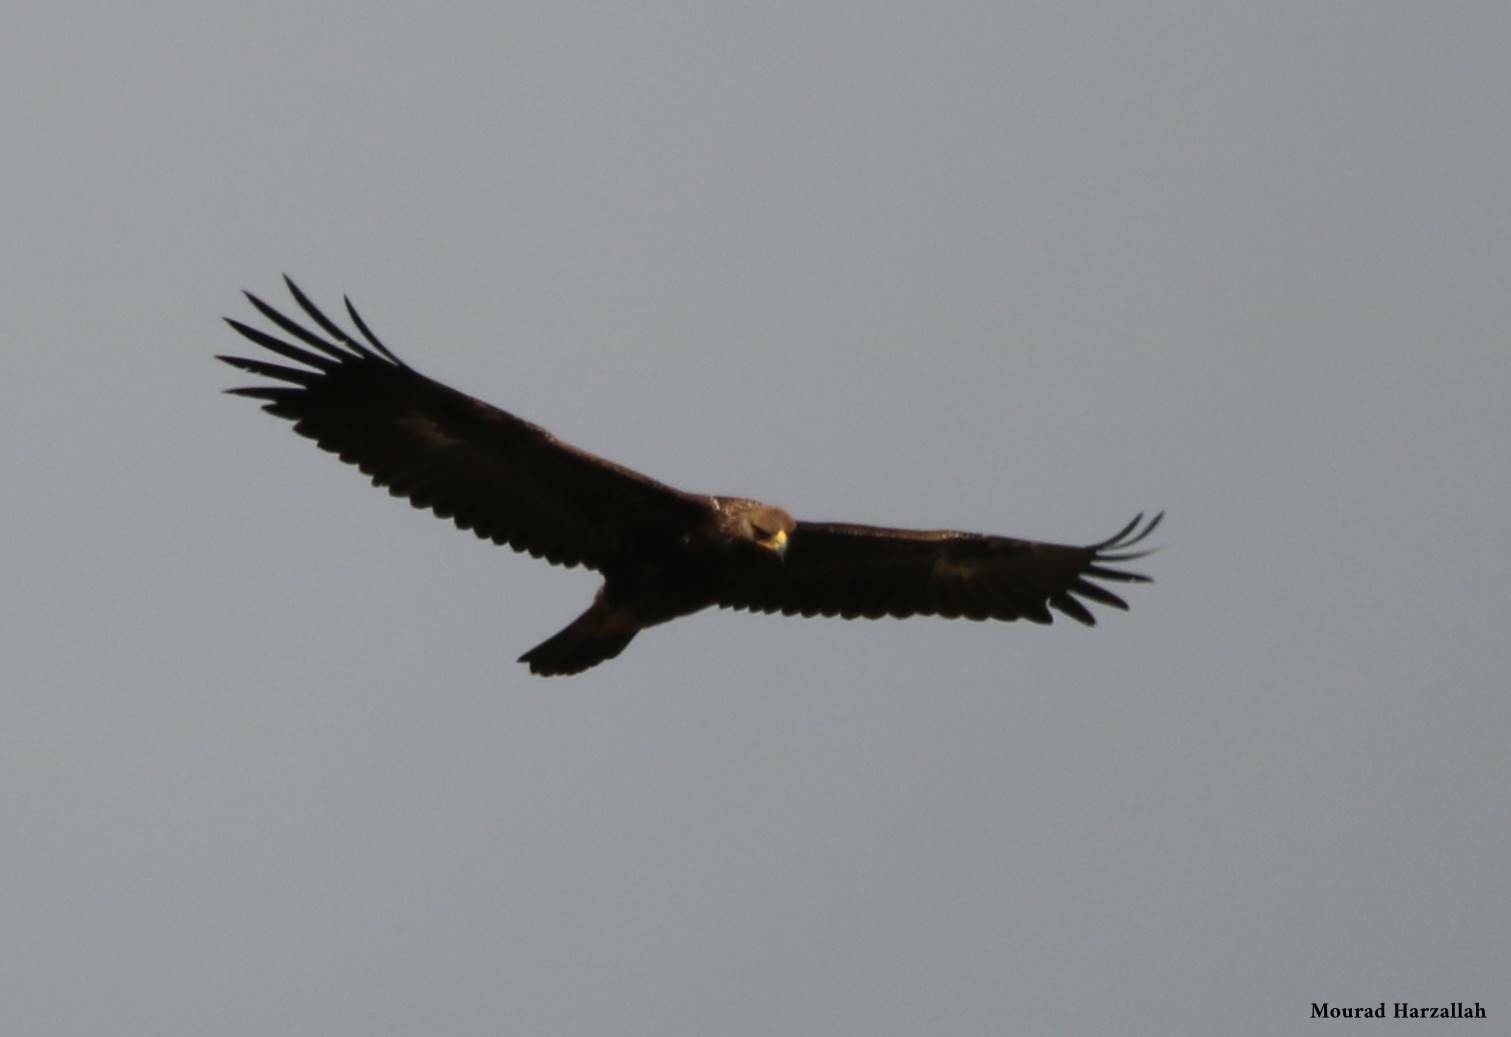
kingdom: Animalia
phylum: Chordata
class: Aves
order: Accipitriformes
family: Accipitridae
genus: Aquila
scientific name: Aquila chrysaetos
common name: Golden eagle
